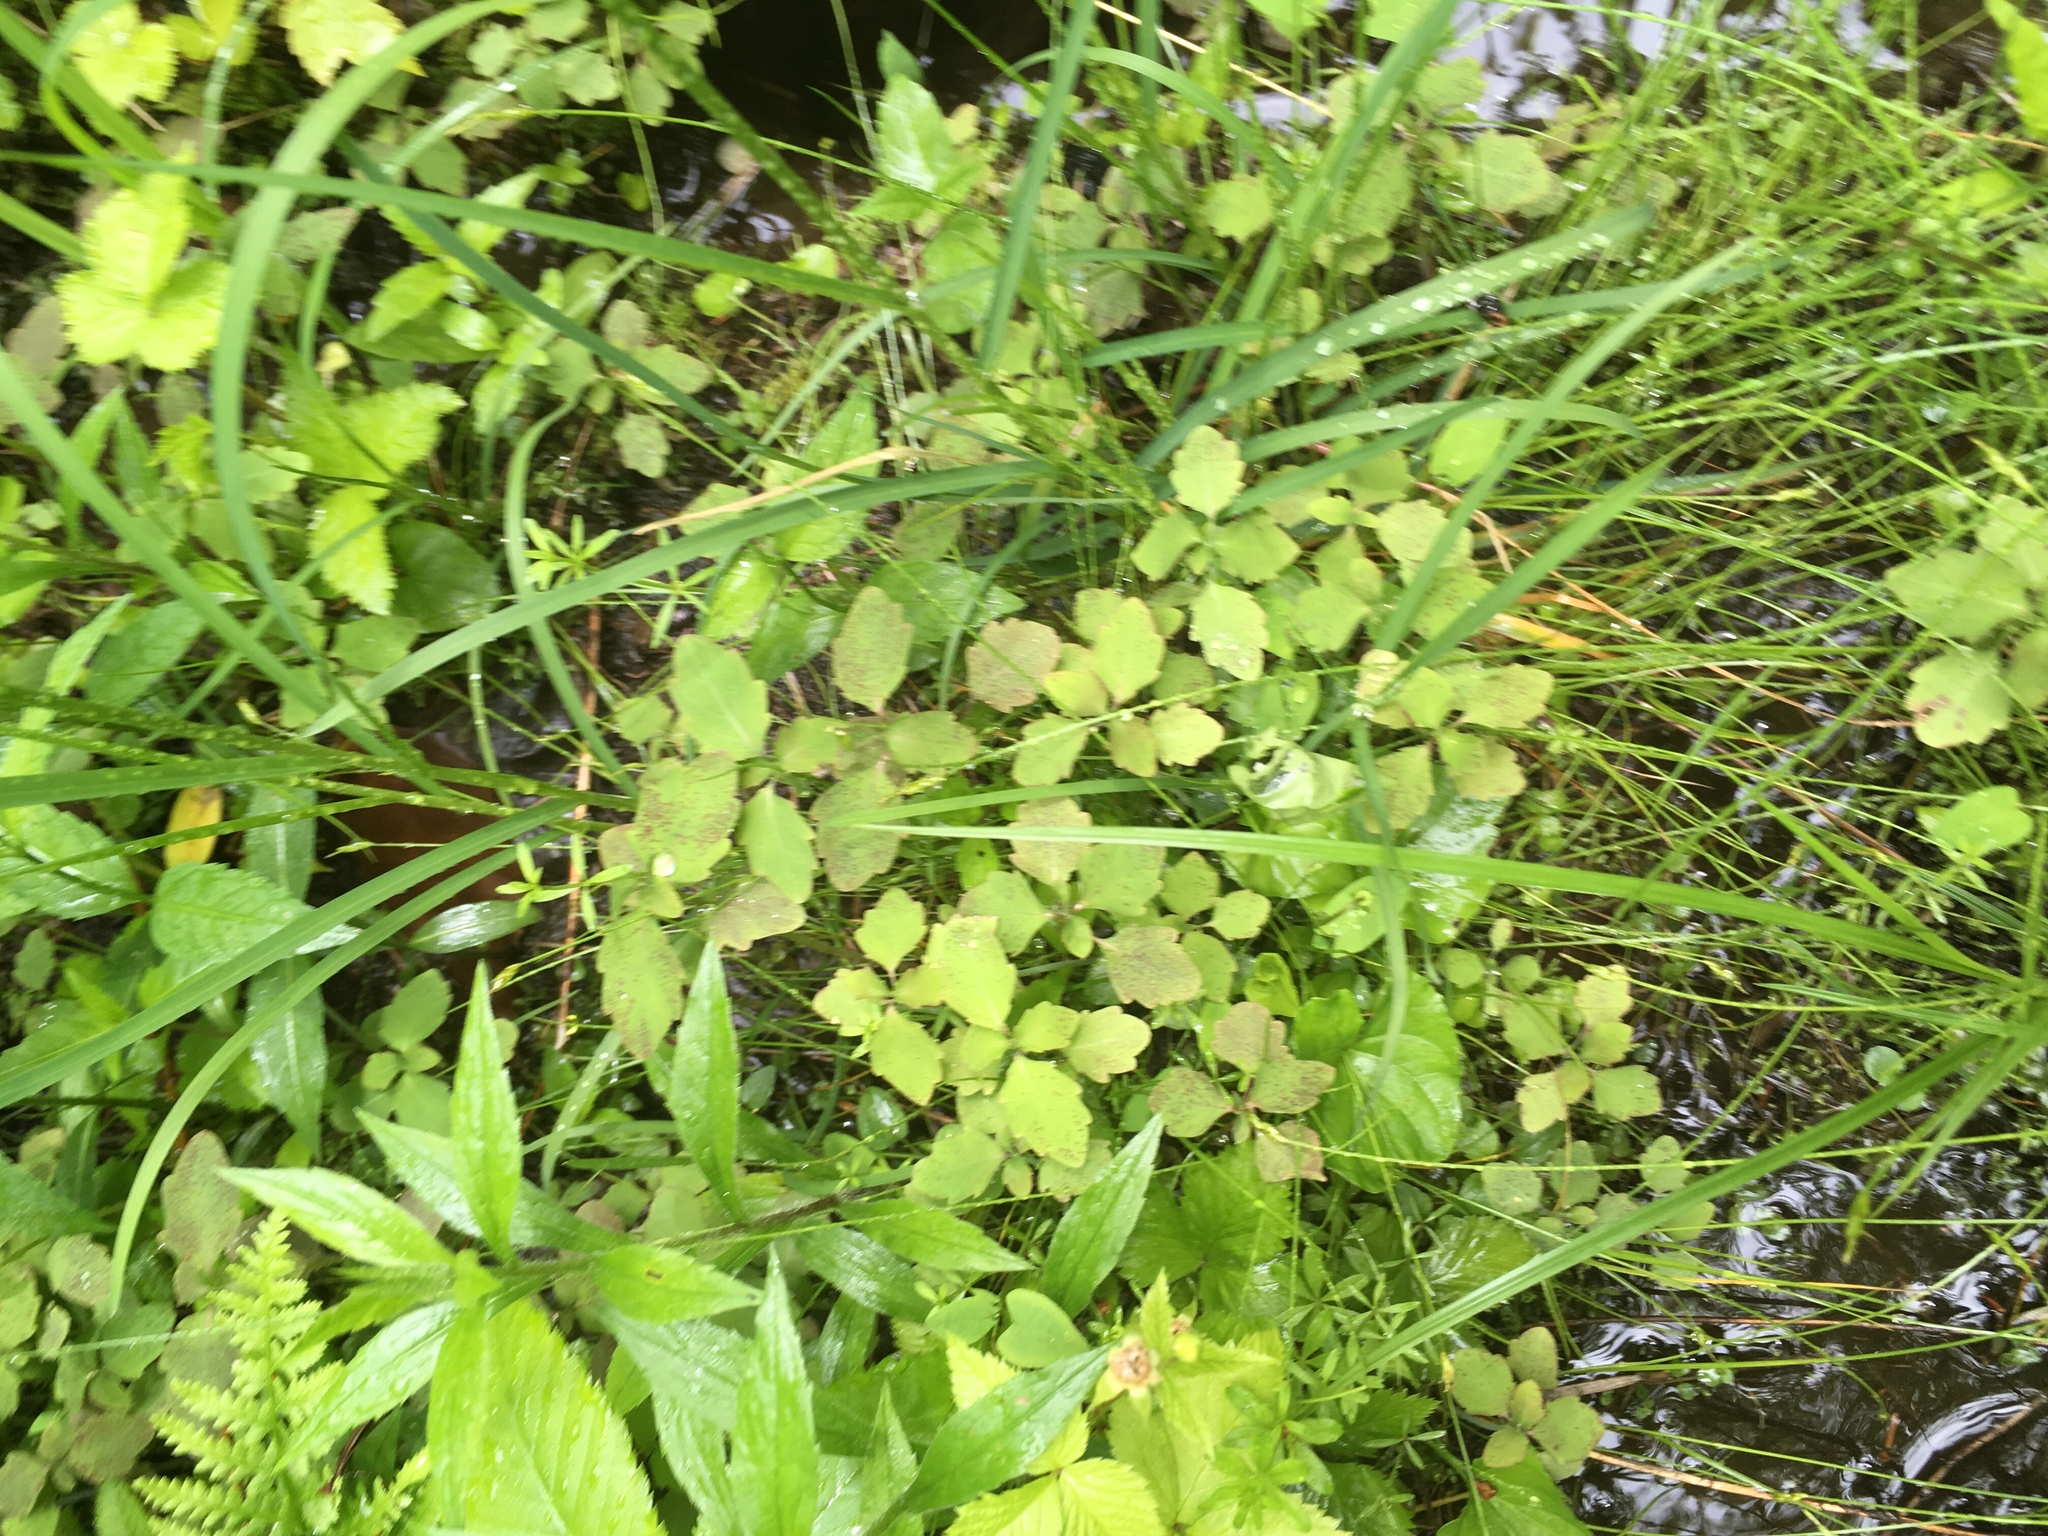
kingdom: Plantae
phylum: Tracheophyta
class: Magnoliopsida
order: Ericales
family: Balsaminaceae
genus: Impatiens
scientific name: Impatiens capensis
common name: Orange balsam
